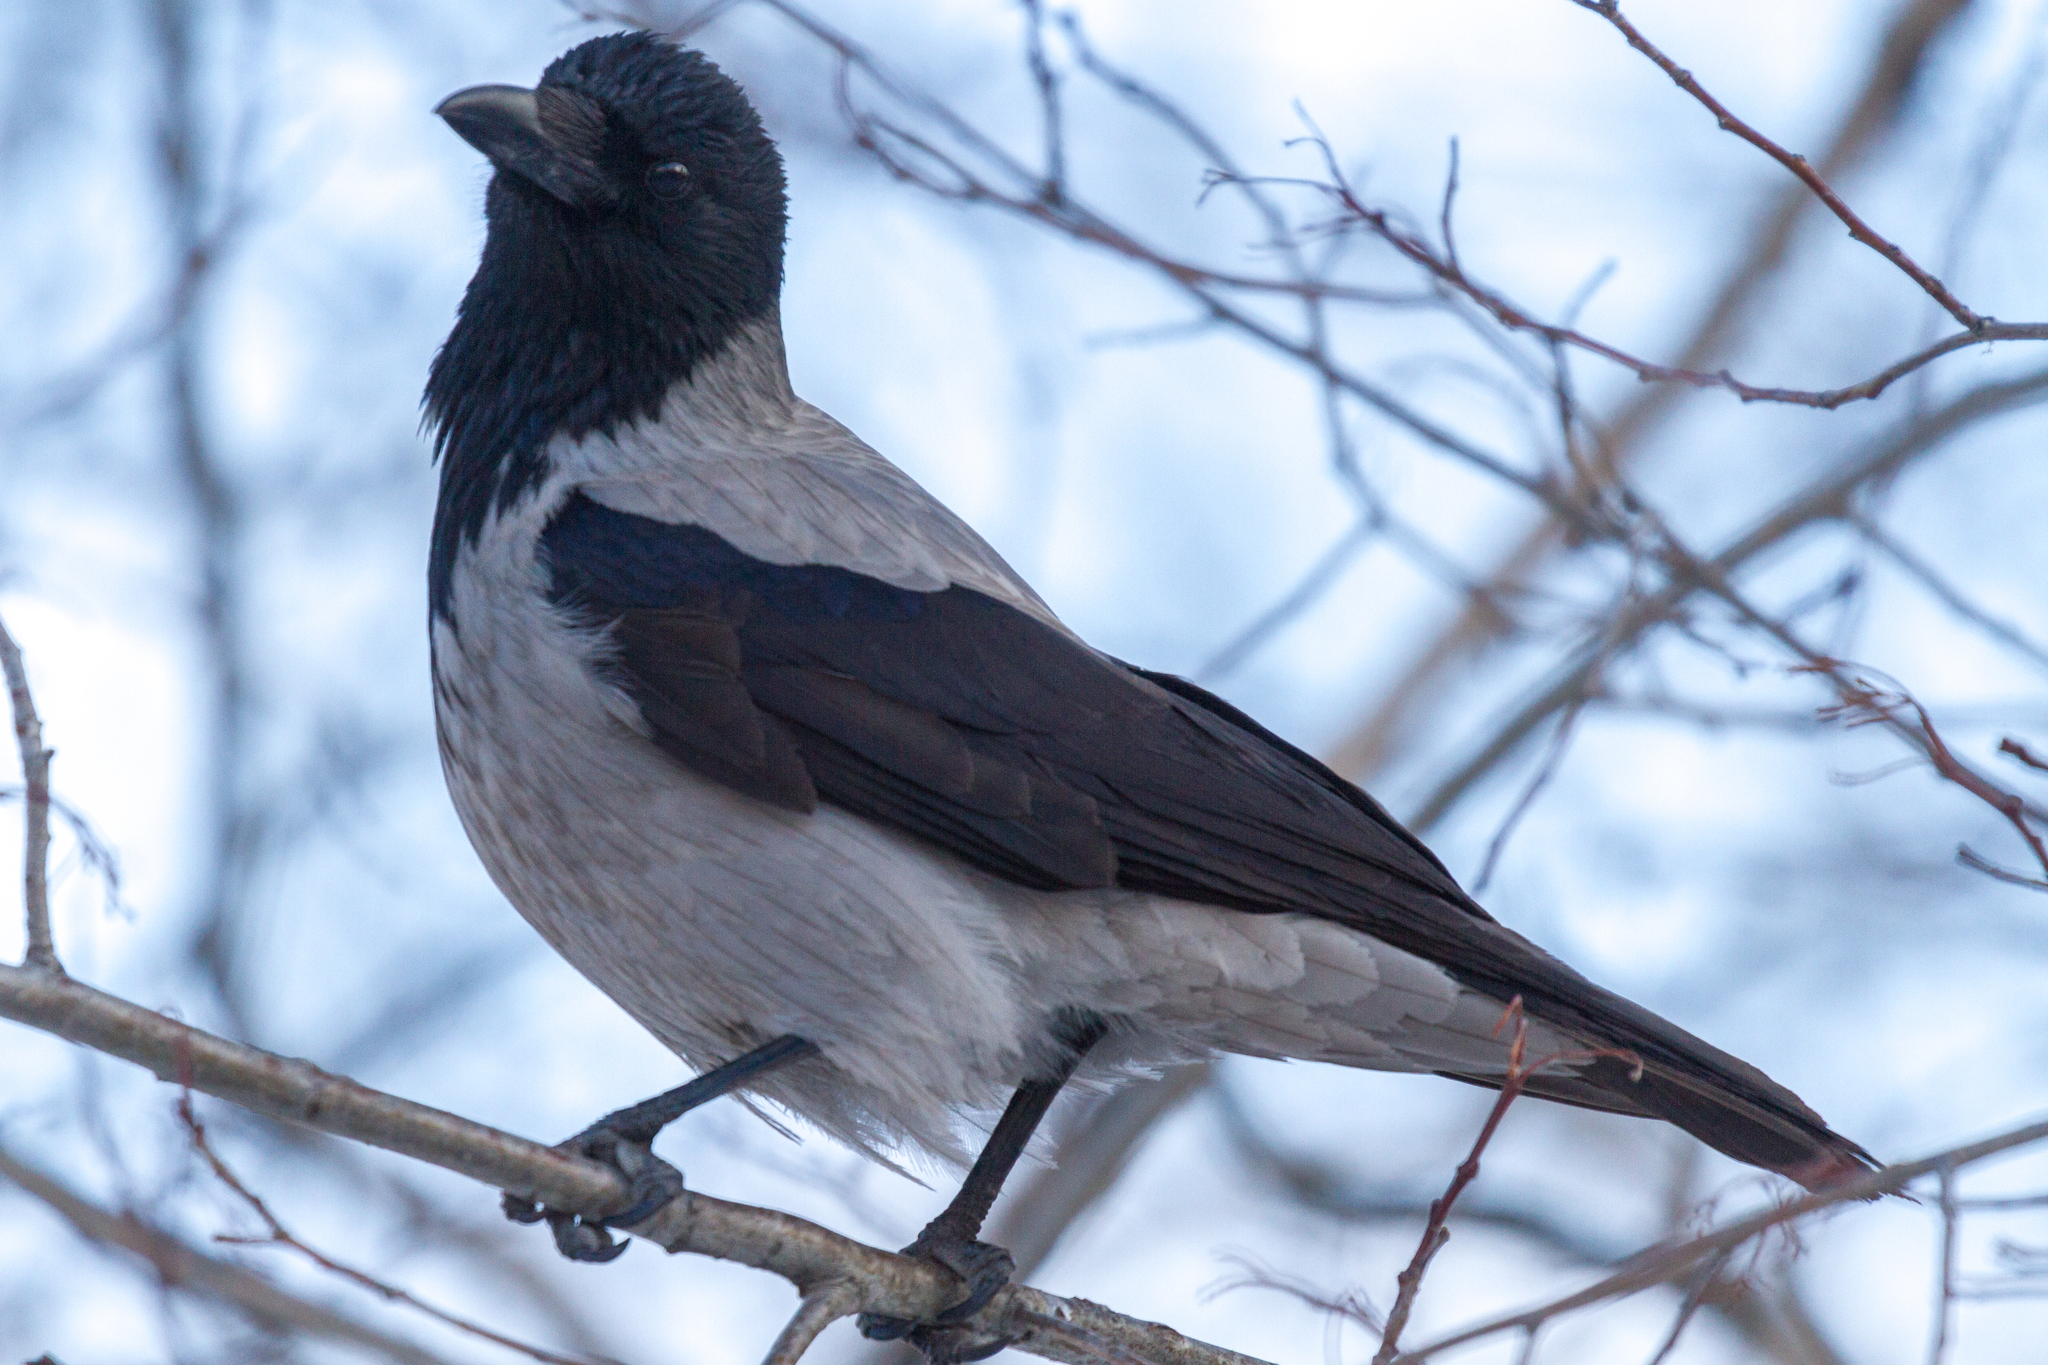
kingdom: Animalia
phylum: Chordata
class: Aves
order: Passeriformes
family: Corvidae
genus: Corvus
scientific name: Corvus cornix
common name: Hooded crow
